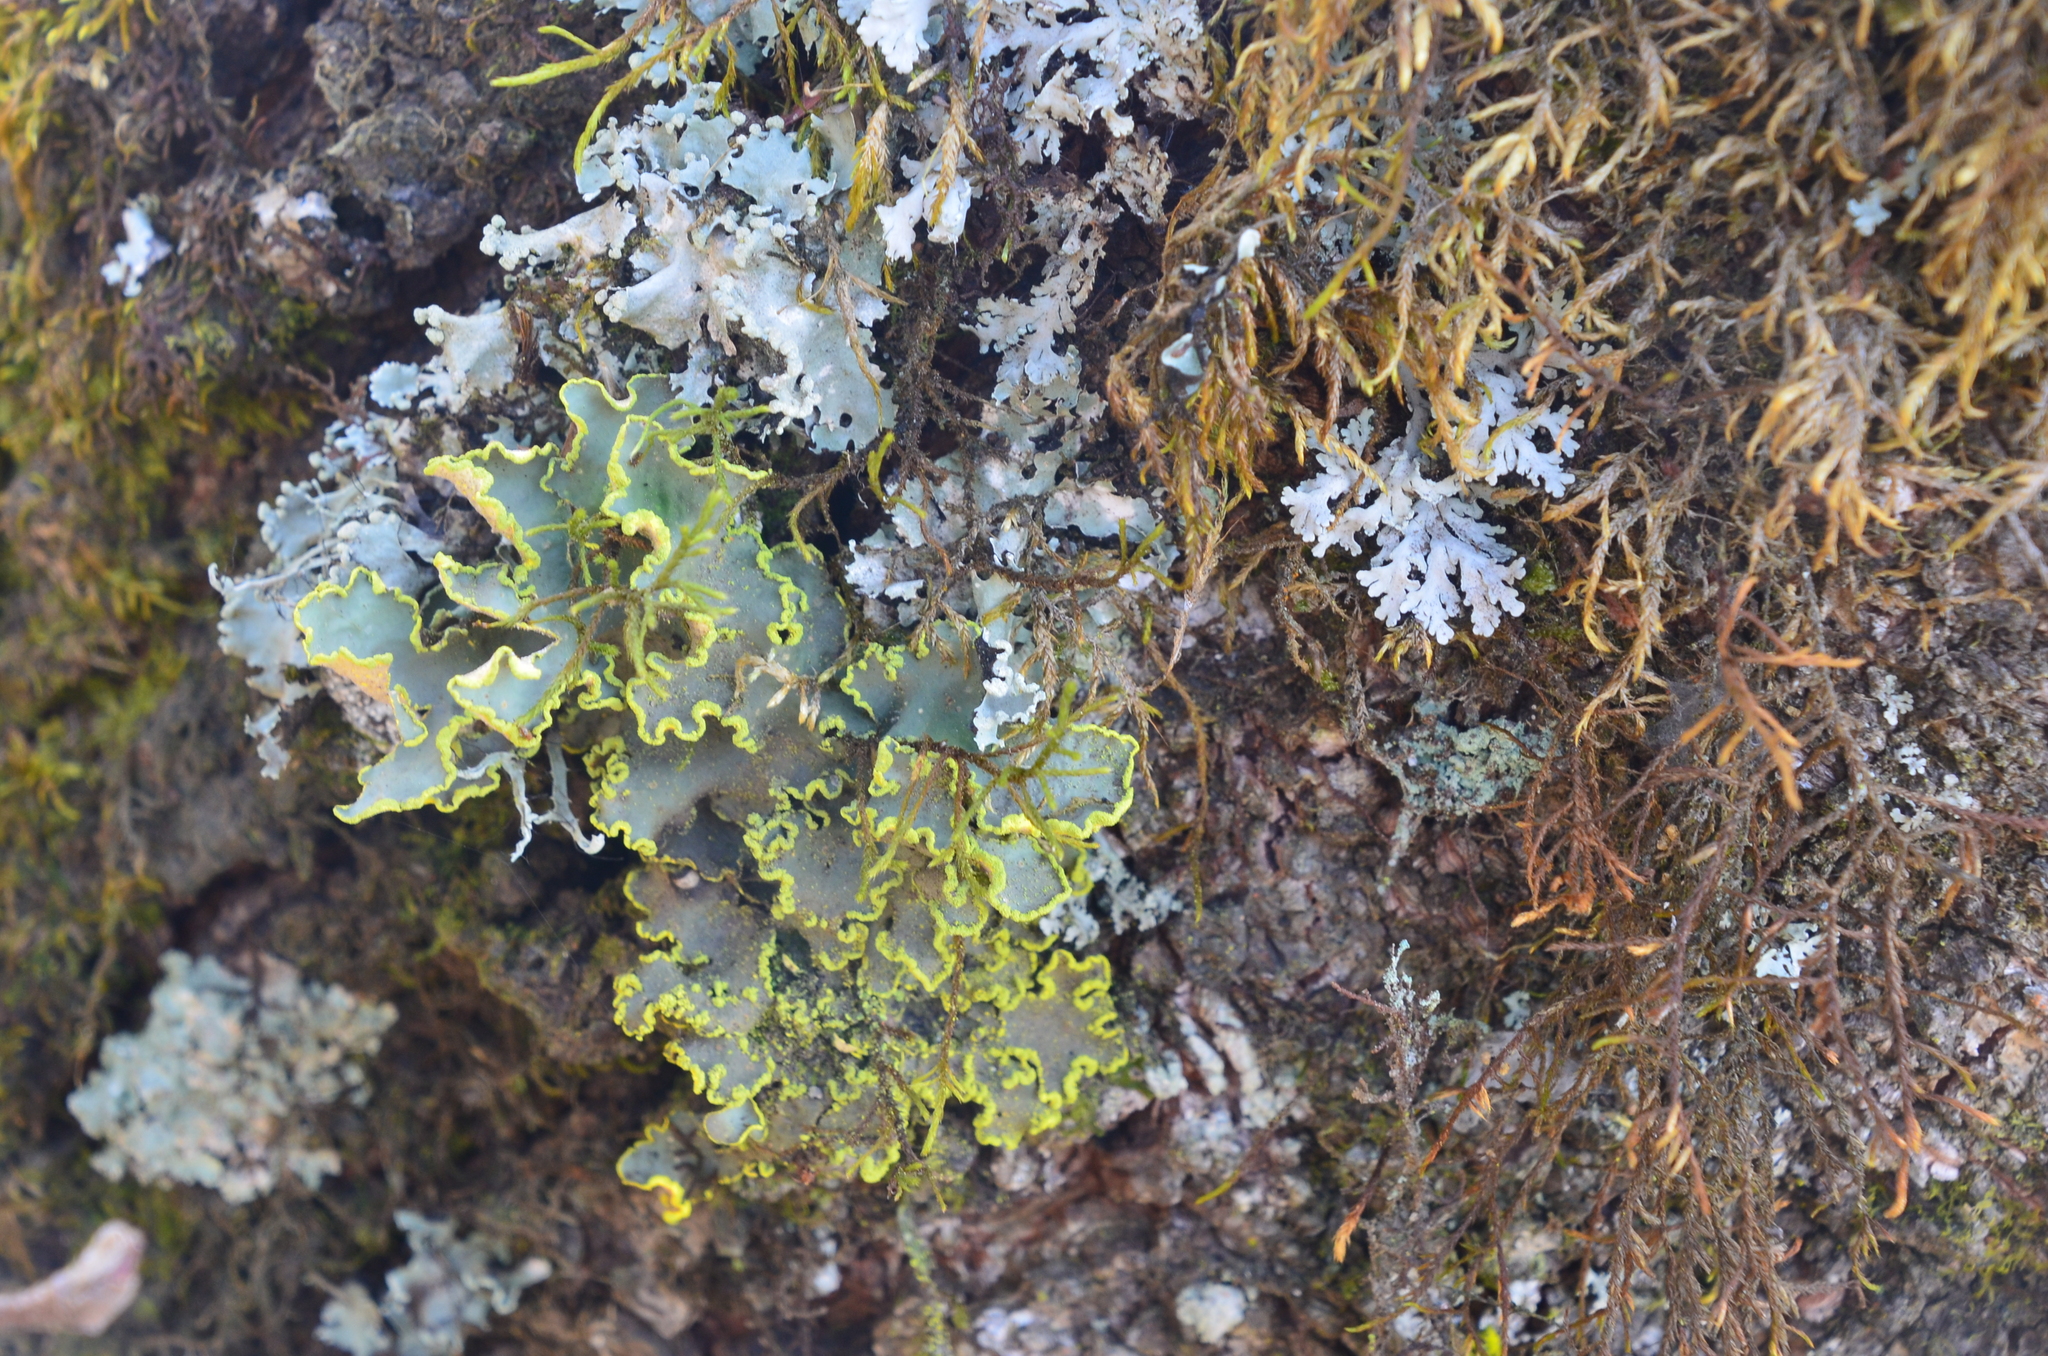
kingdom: Fungi
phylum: Ascomycota
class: Lecanoromycetes
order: Peltigerales
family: Lobariaceae
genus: Pseudocyphellaria
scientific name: Pseudocyphellaria aurata
